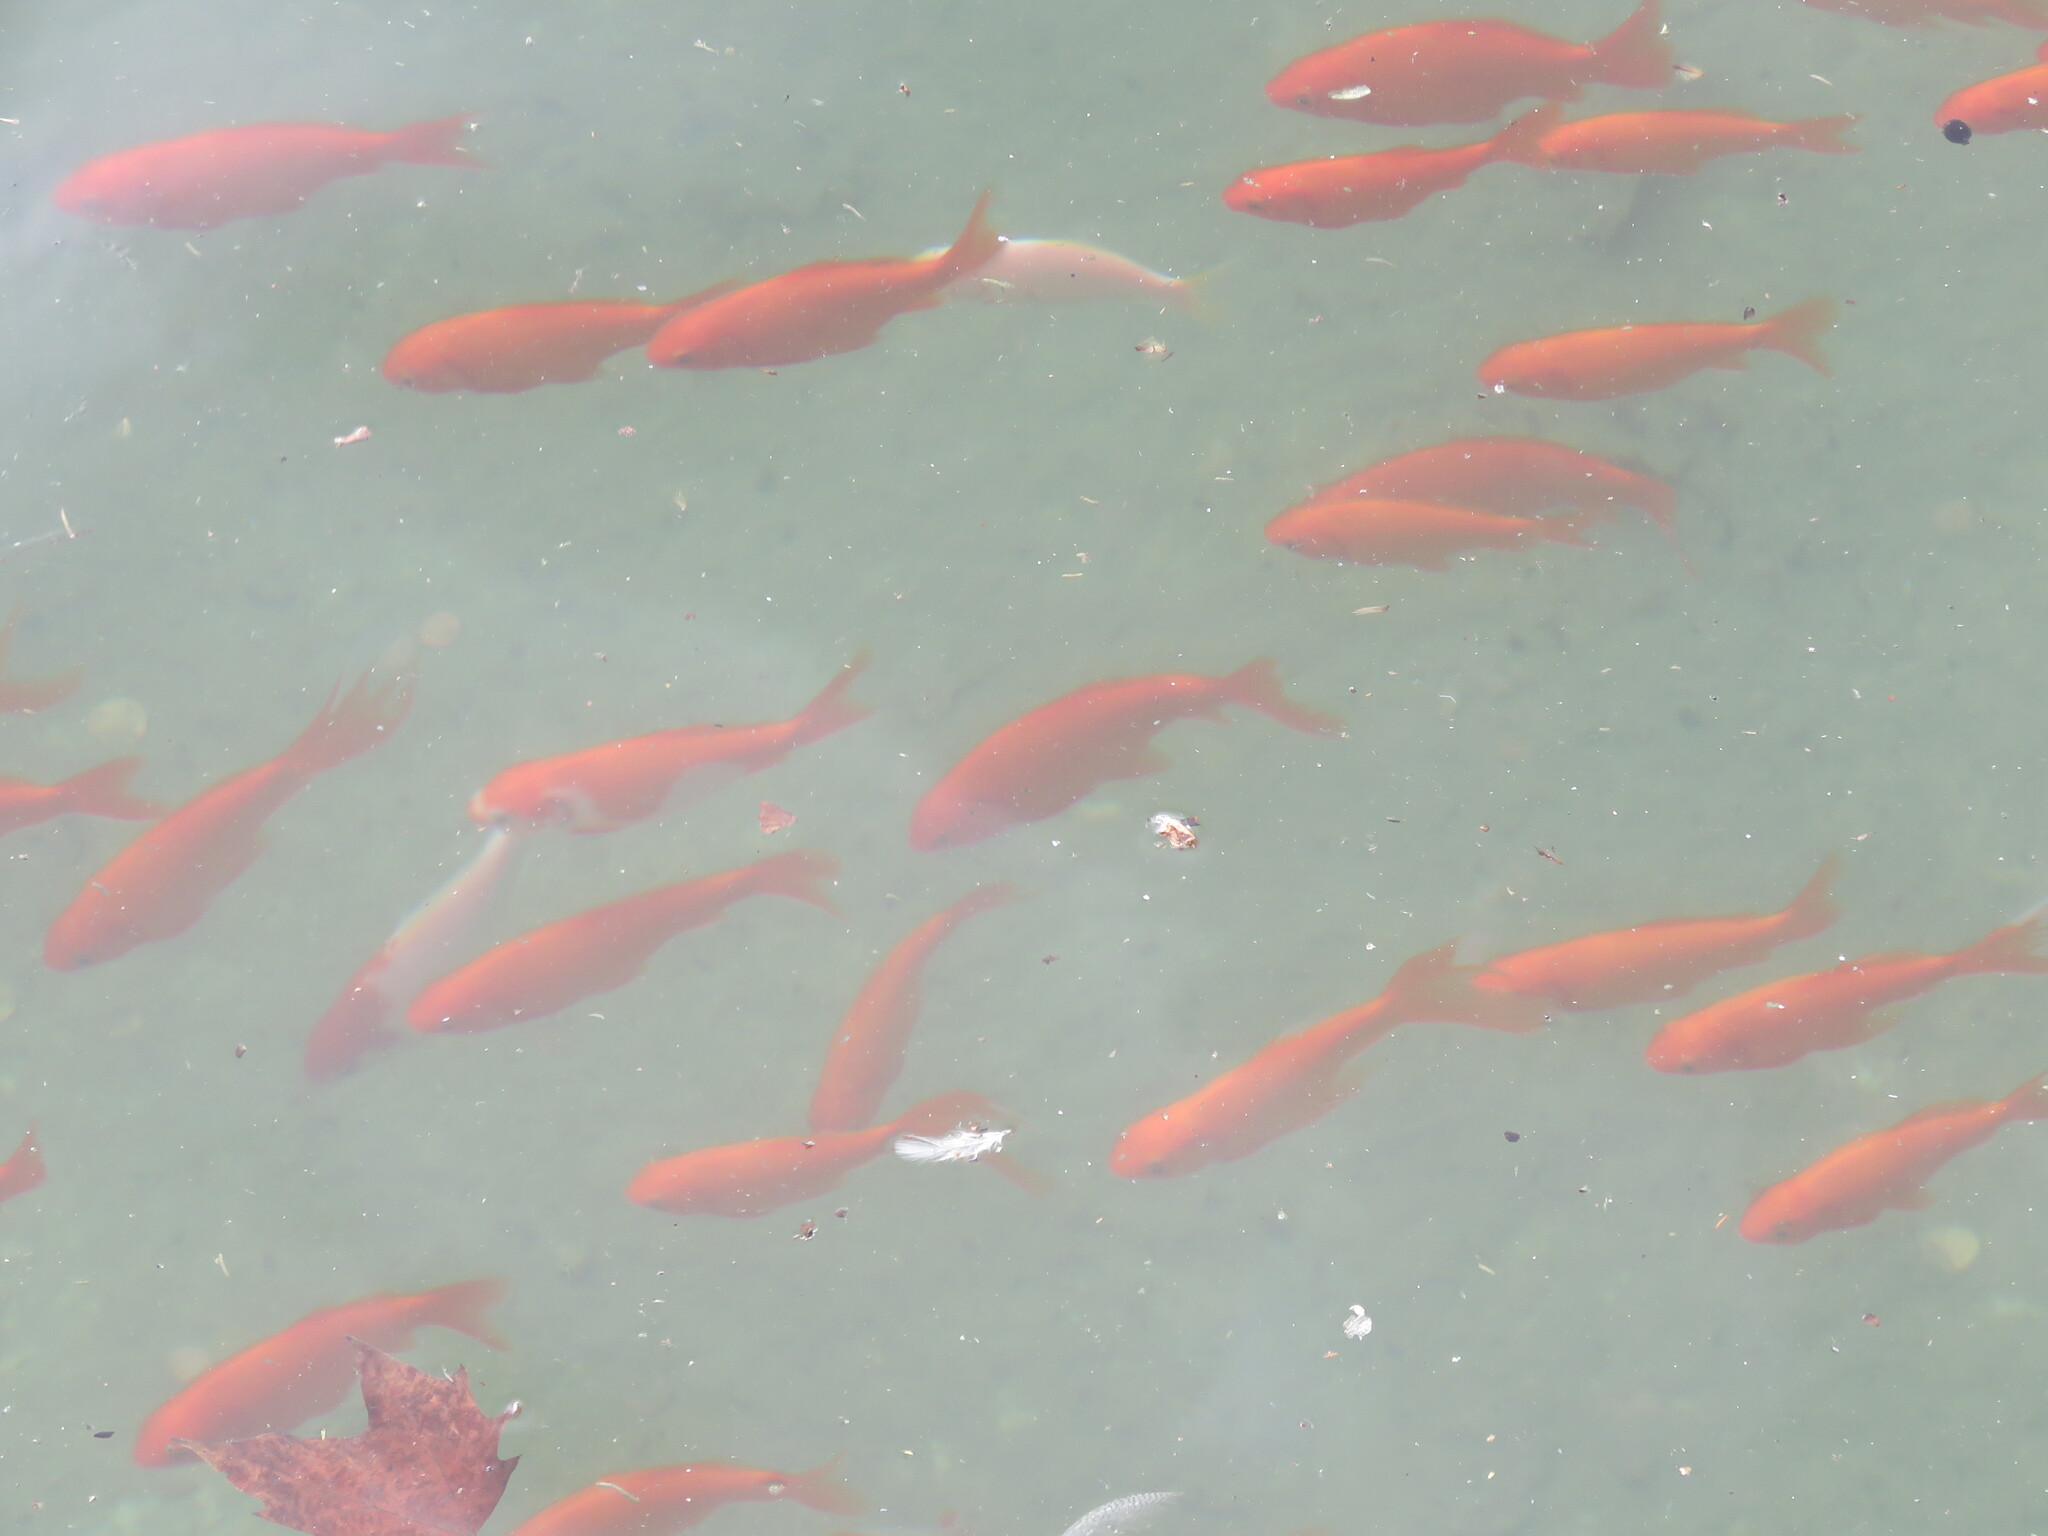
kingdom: Animalia
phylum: Chordata
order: Cypriniformes
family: Cyprinidae
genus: Carassius
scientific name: Carassius auratus
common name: Goldfish
